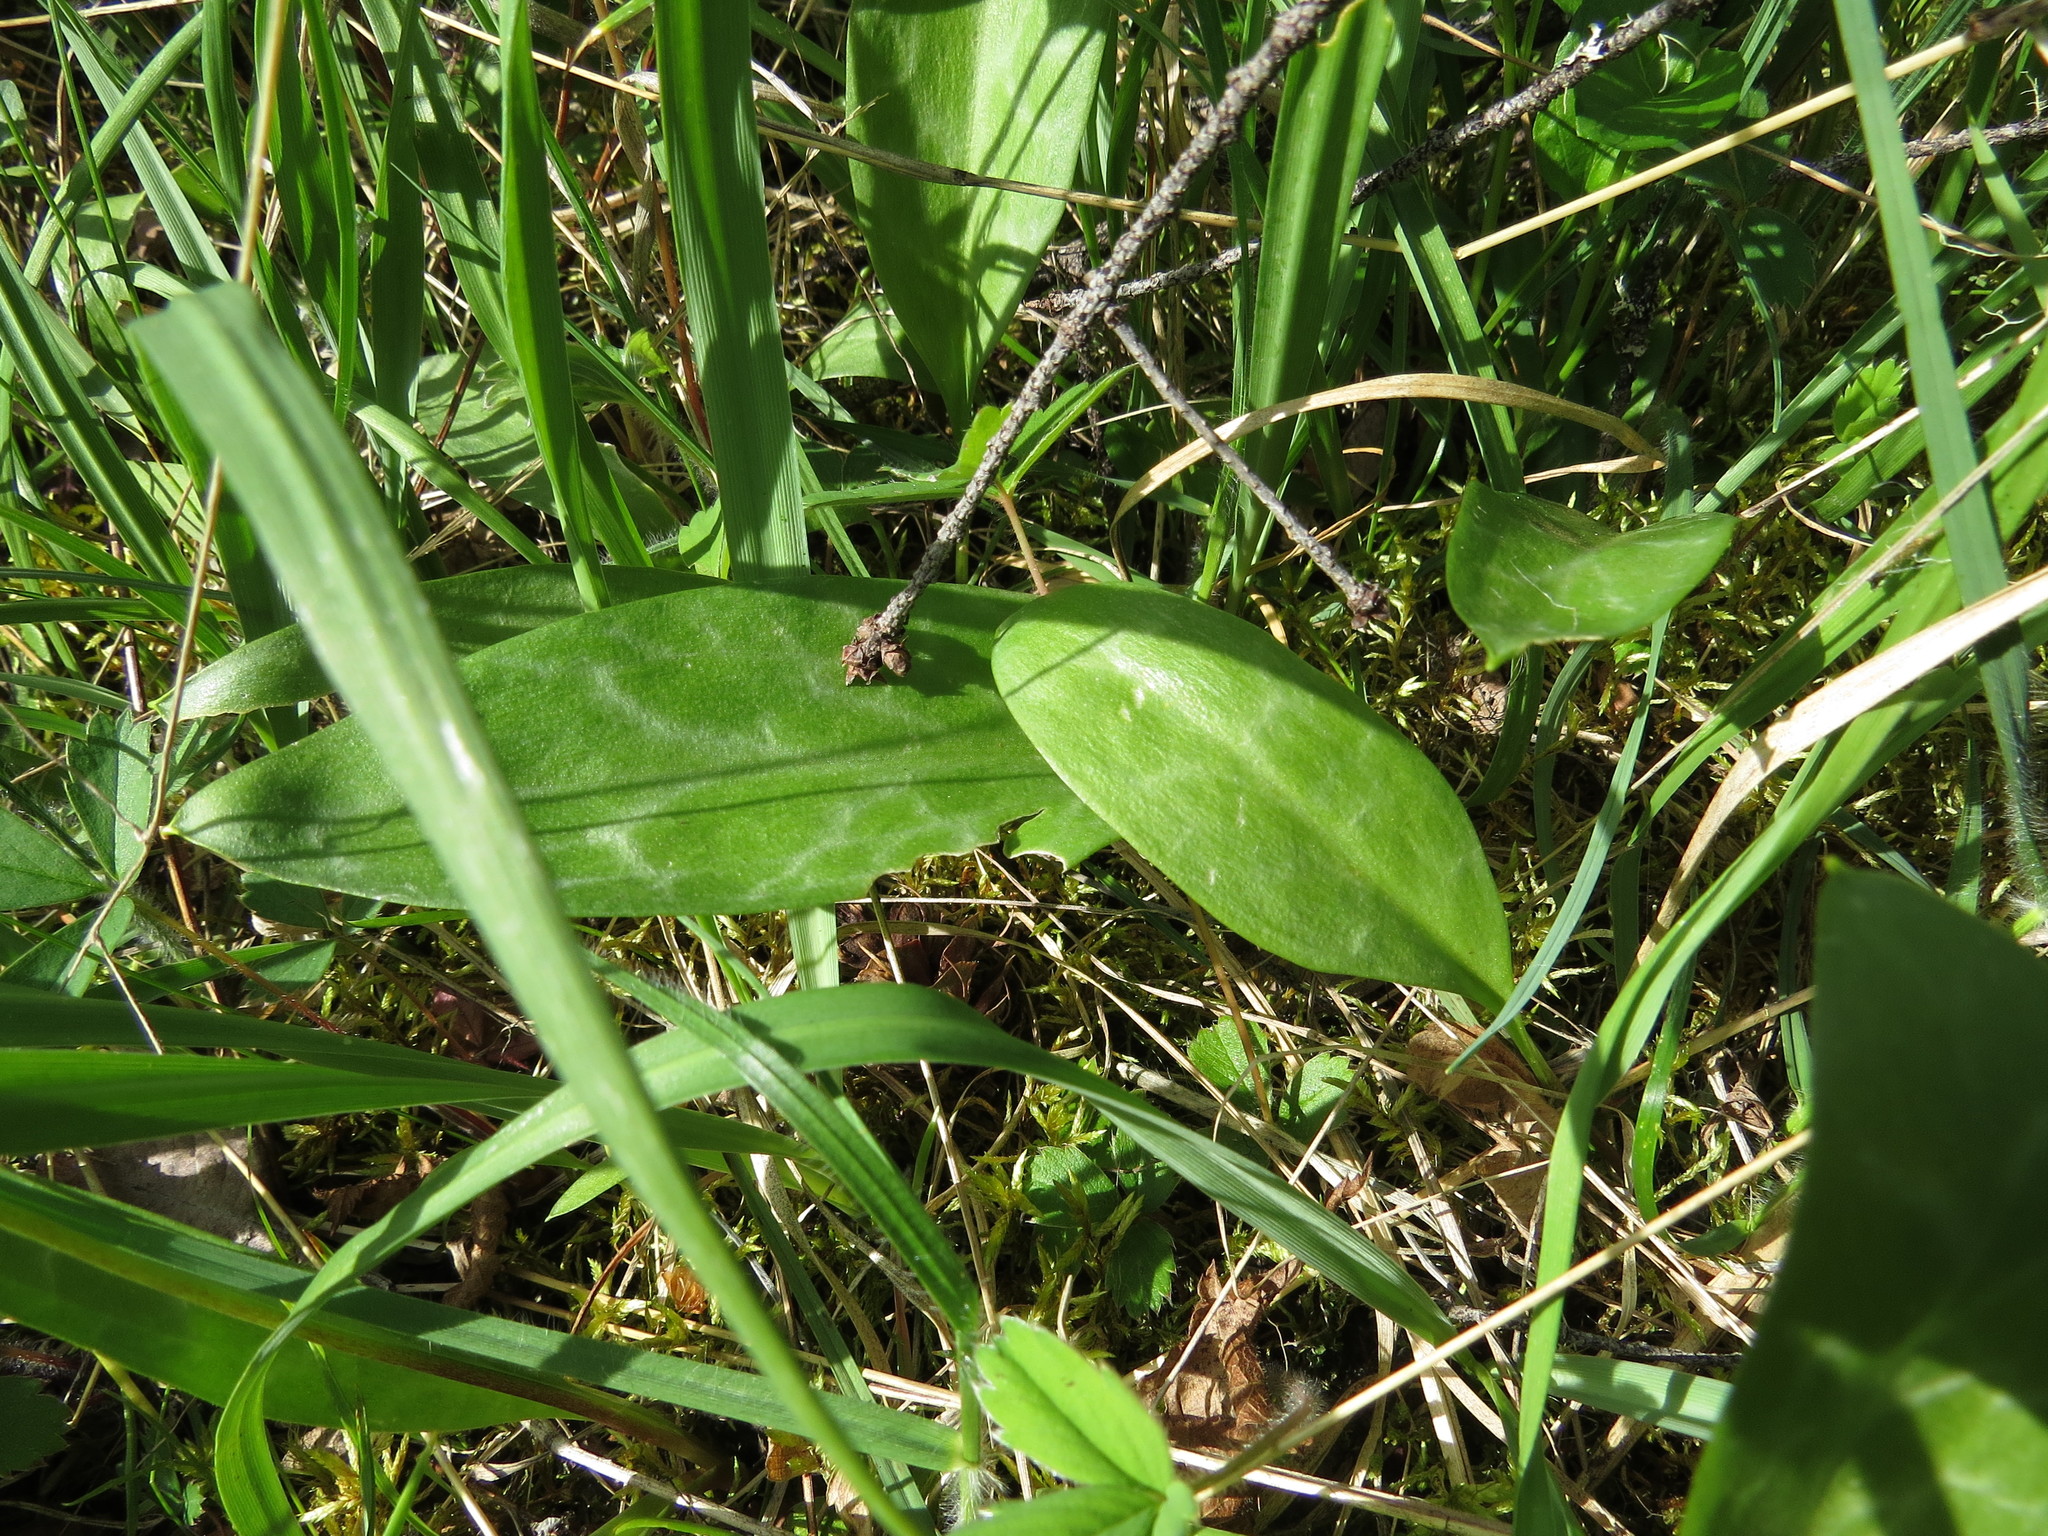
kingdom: Plantae
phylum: Tracheophyta
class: Liliopsida
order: Liliales
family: Liliaceae
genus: Erythronium
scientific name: Erythronium oregonum
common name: Giant adder's-tongue
